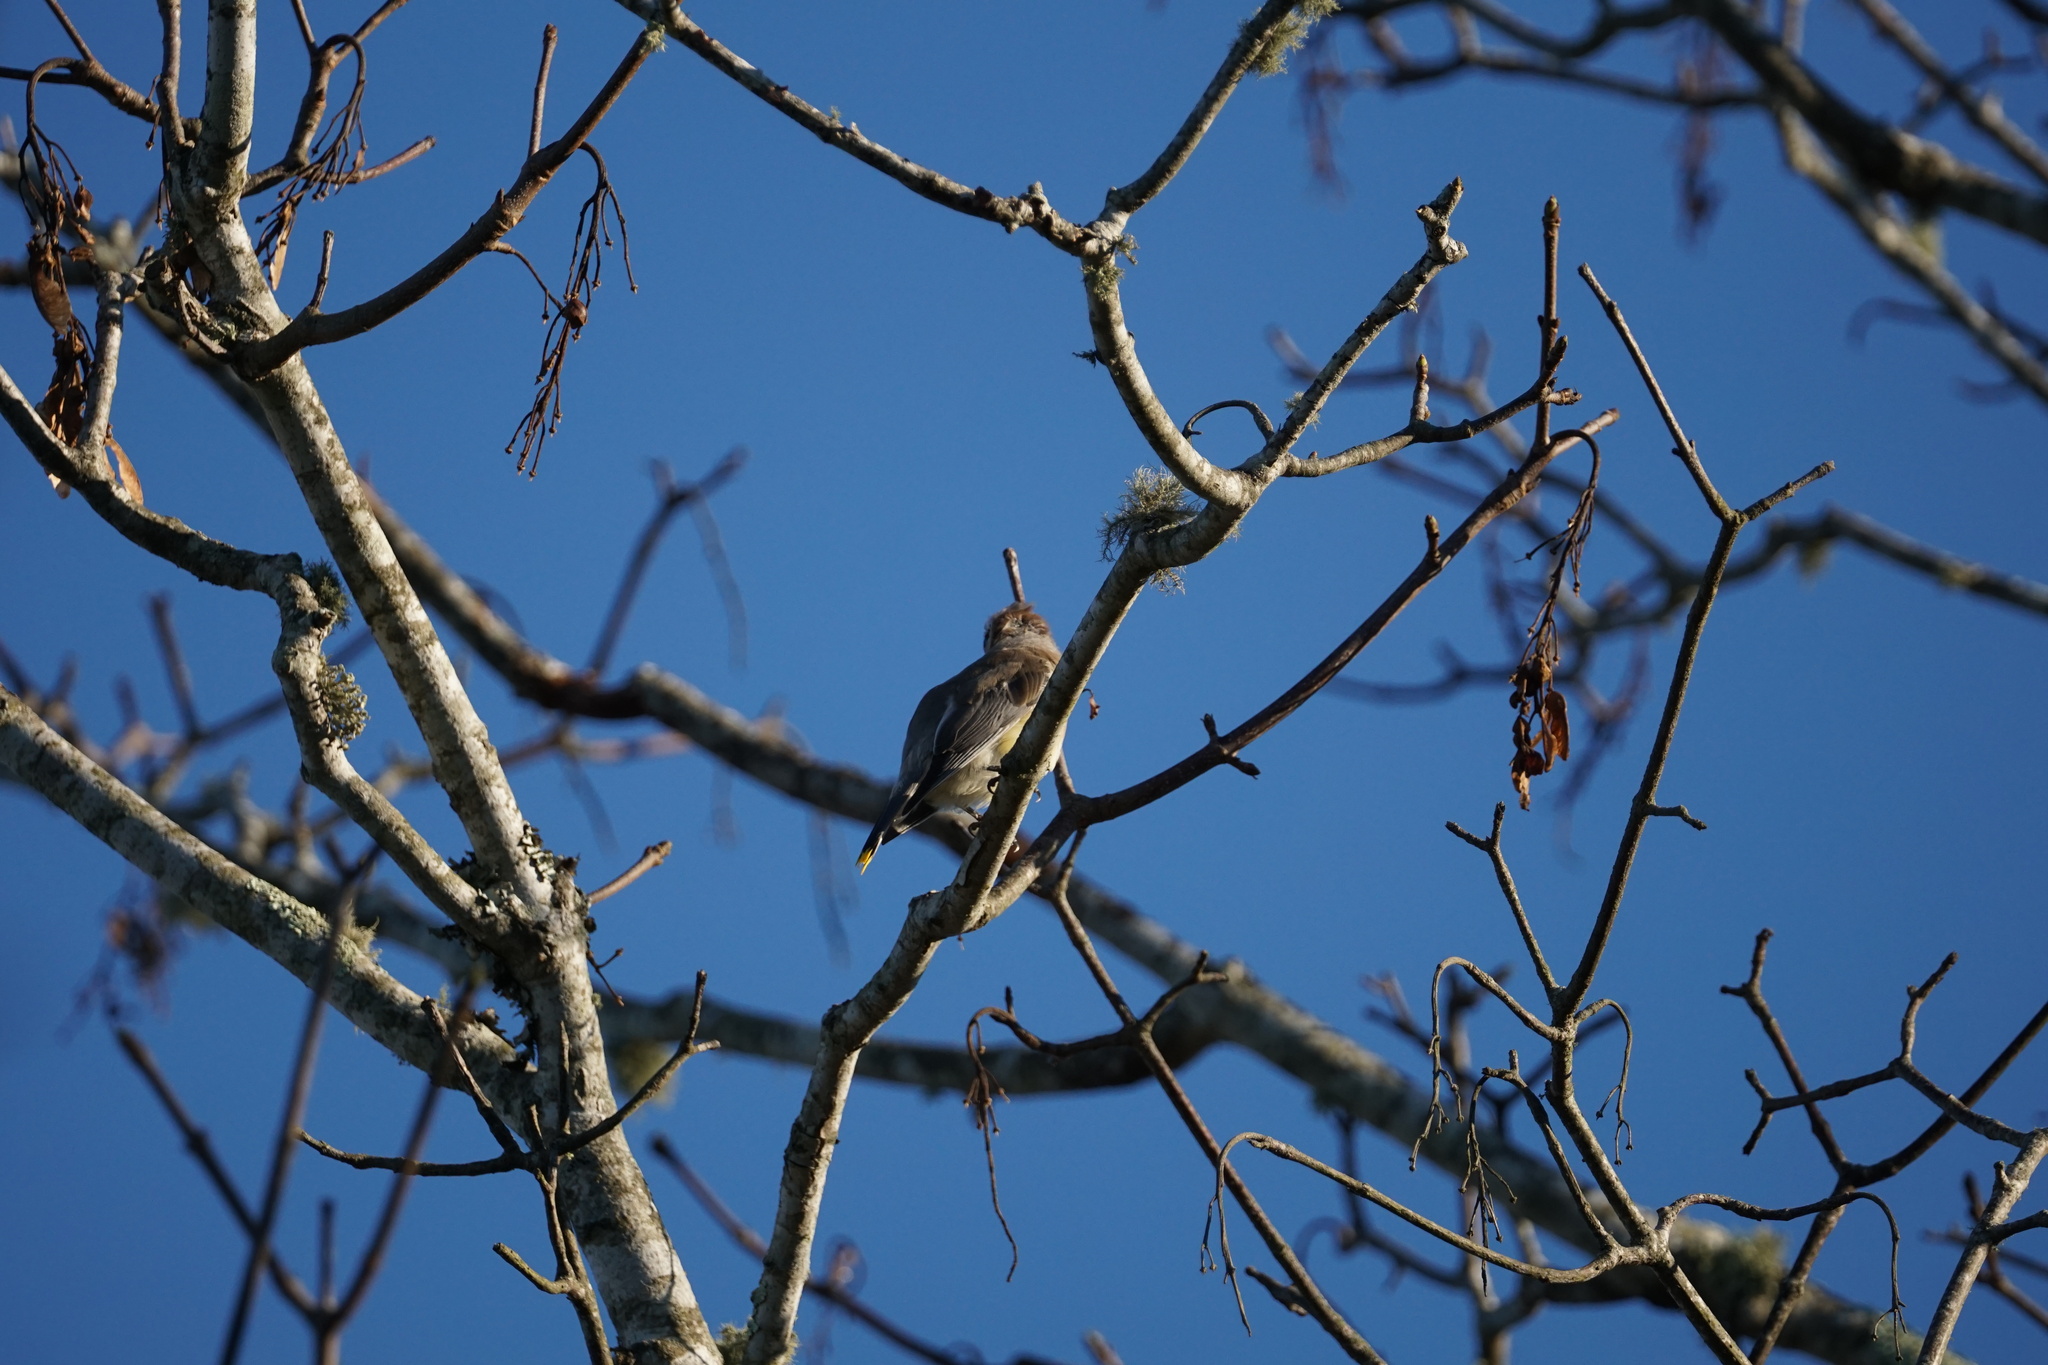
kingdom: Animalia
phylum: Chordata
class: Aves
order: Passeriformes
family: Bombycillidae
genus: Bombycilla
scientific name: Bombycilla cedrorum
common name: Cedar waxwing
